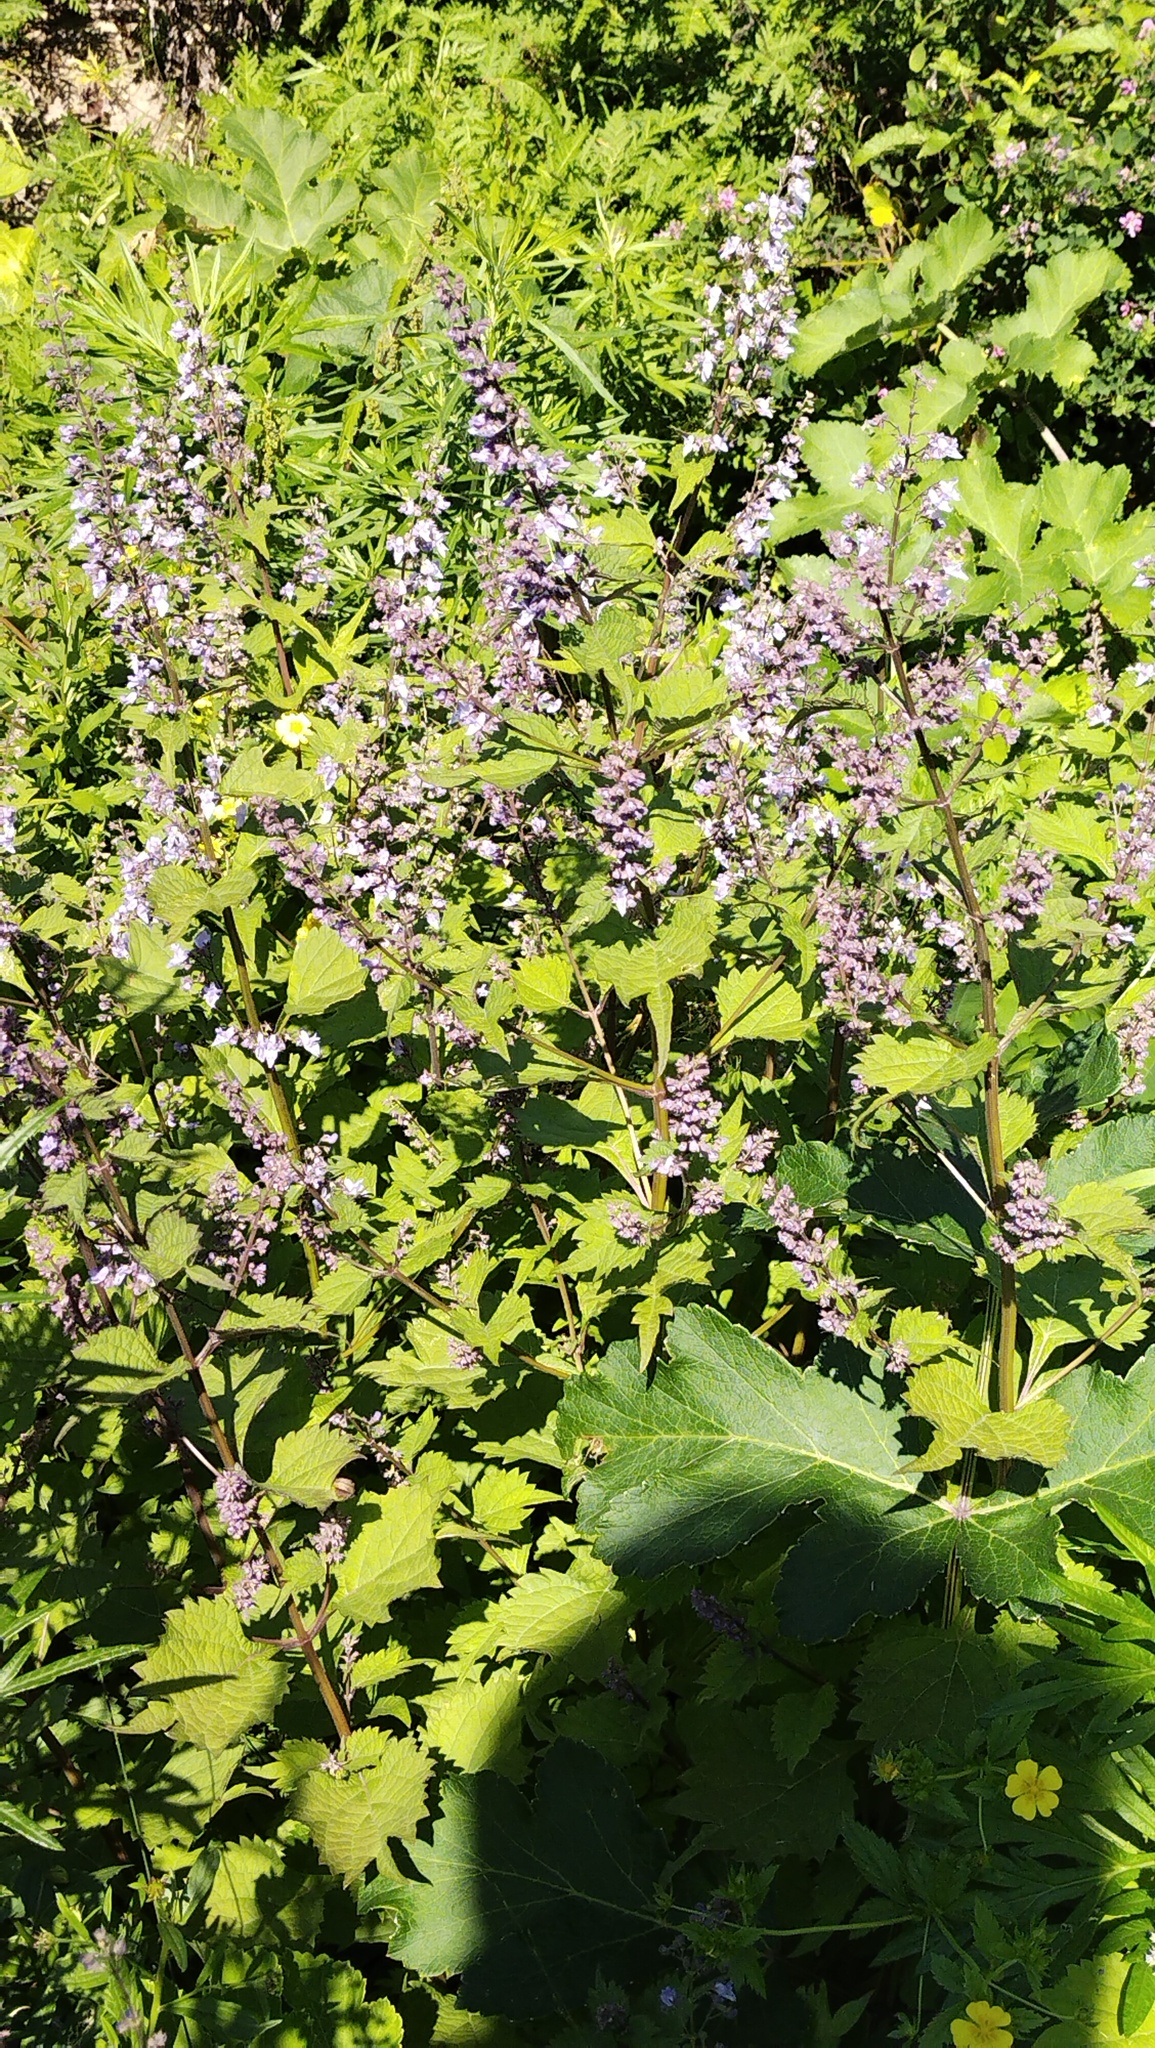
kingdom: Plantae
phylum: Tracheophyta
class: Magnoliopsida
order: Lamiales
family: Lamiaceae
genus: Isodon
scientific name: Isodon excisus
